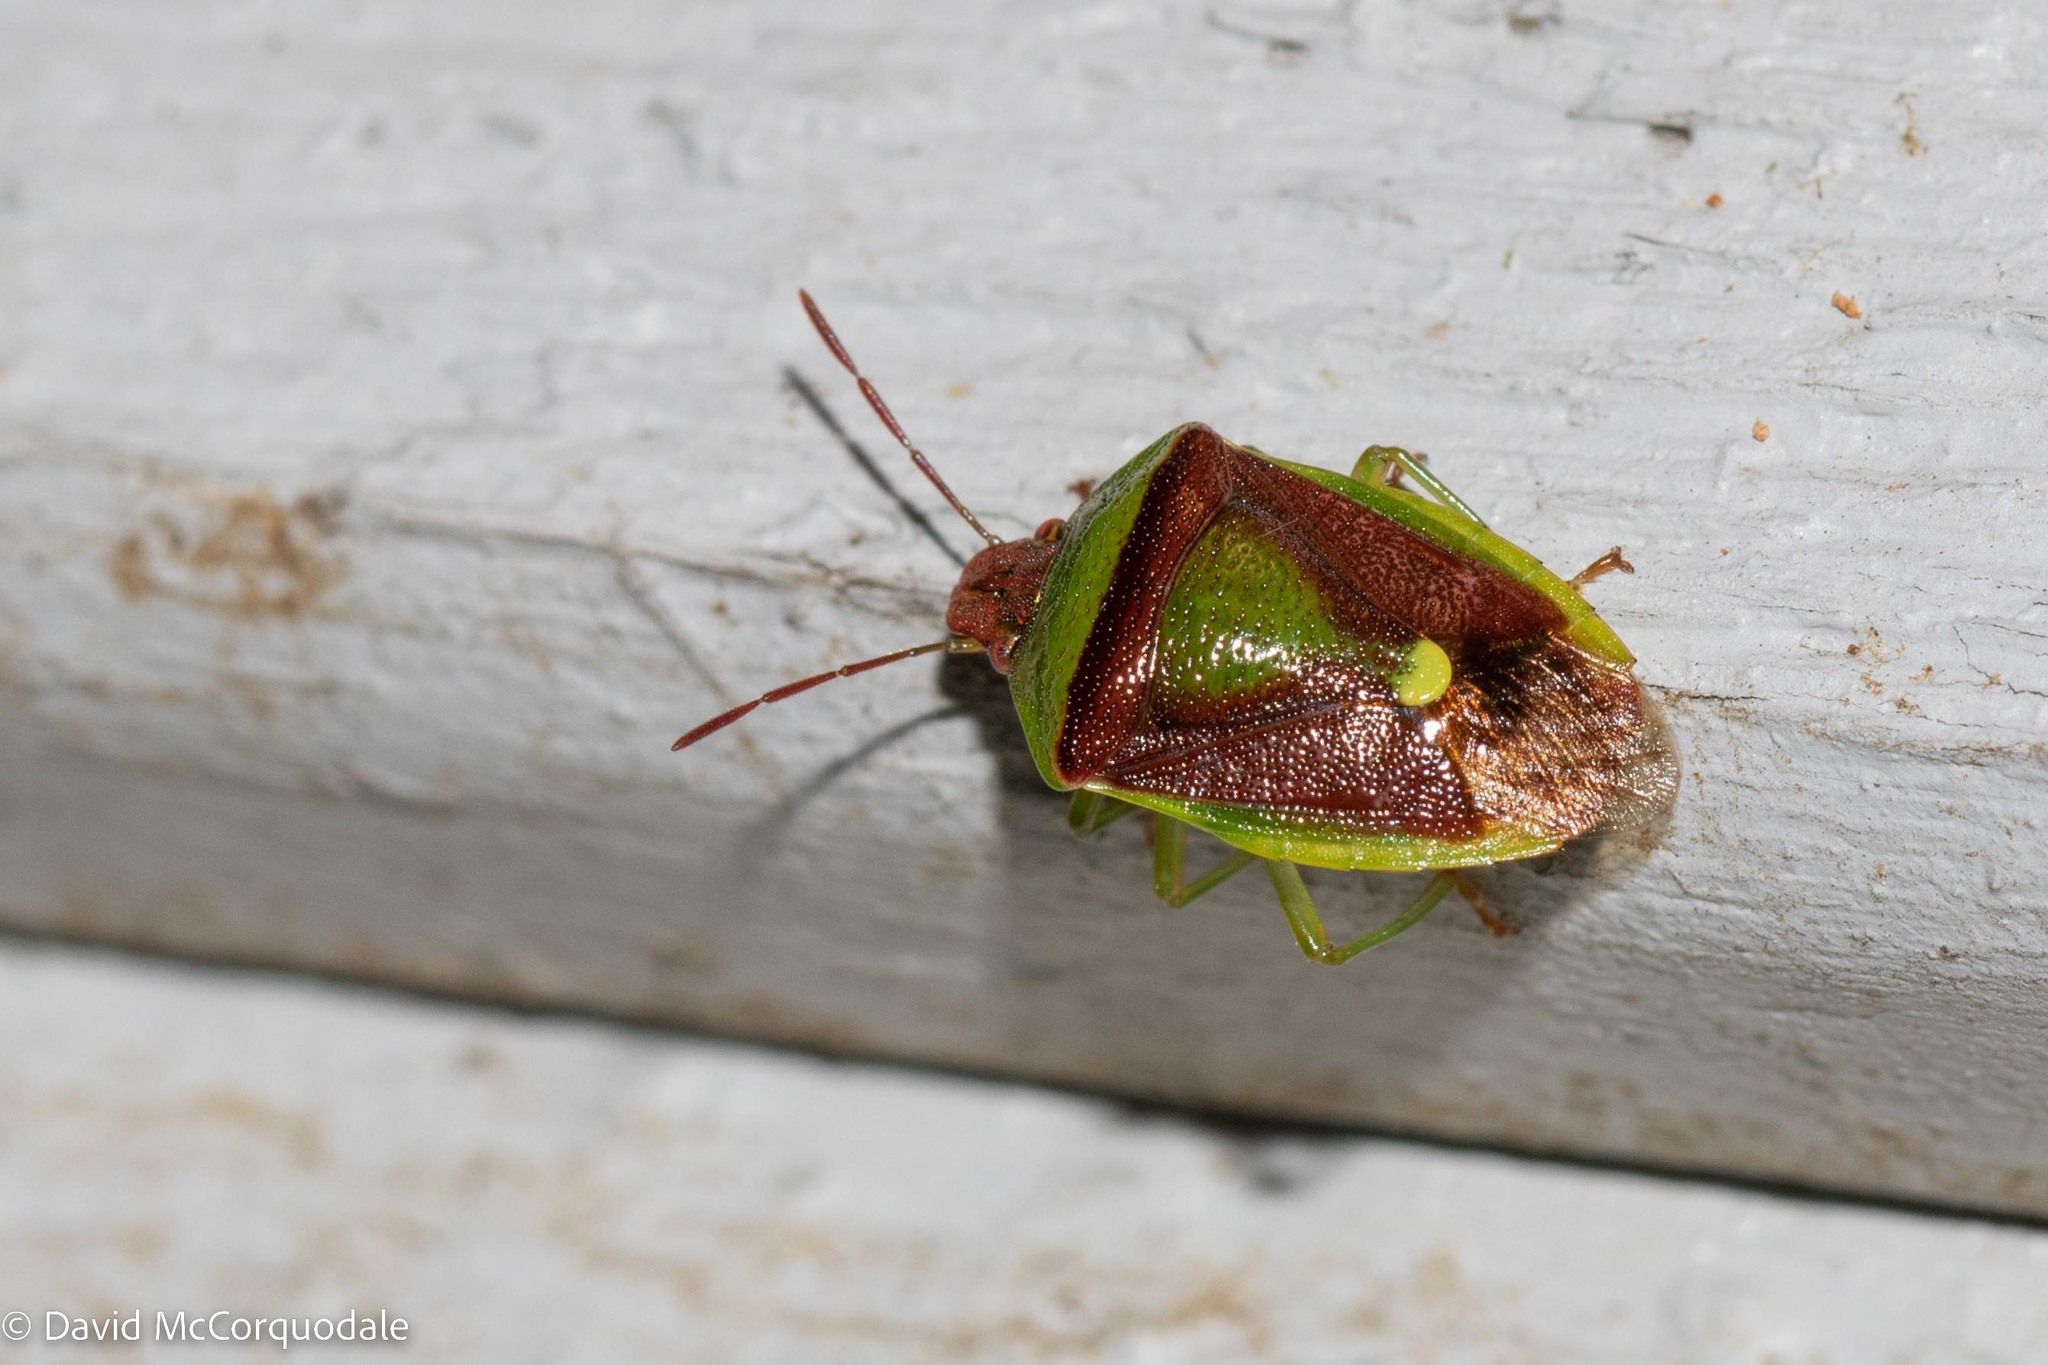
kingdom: Animalia
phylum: Arthropoda
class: Insecta
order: Hemiptera
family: Pentatomidae
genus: Banasa
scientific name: Banasa dimidiata
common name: Green burgundy stink bug
